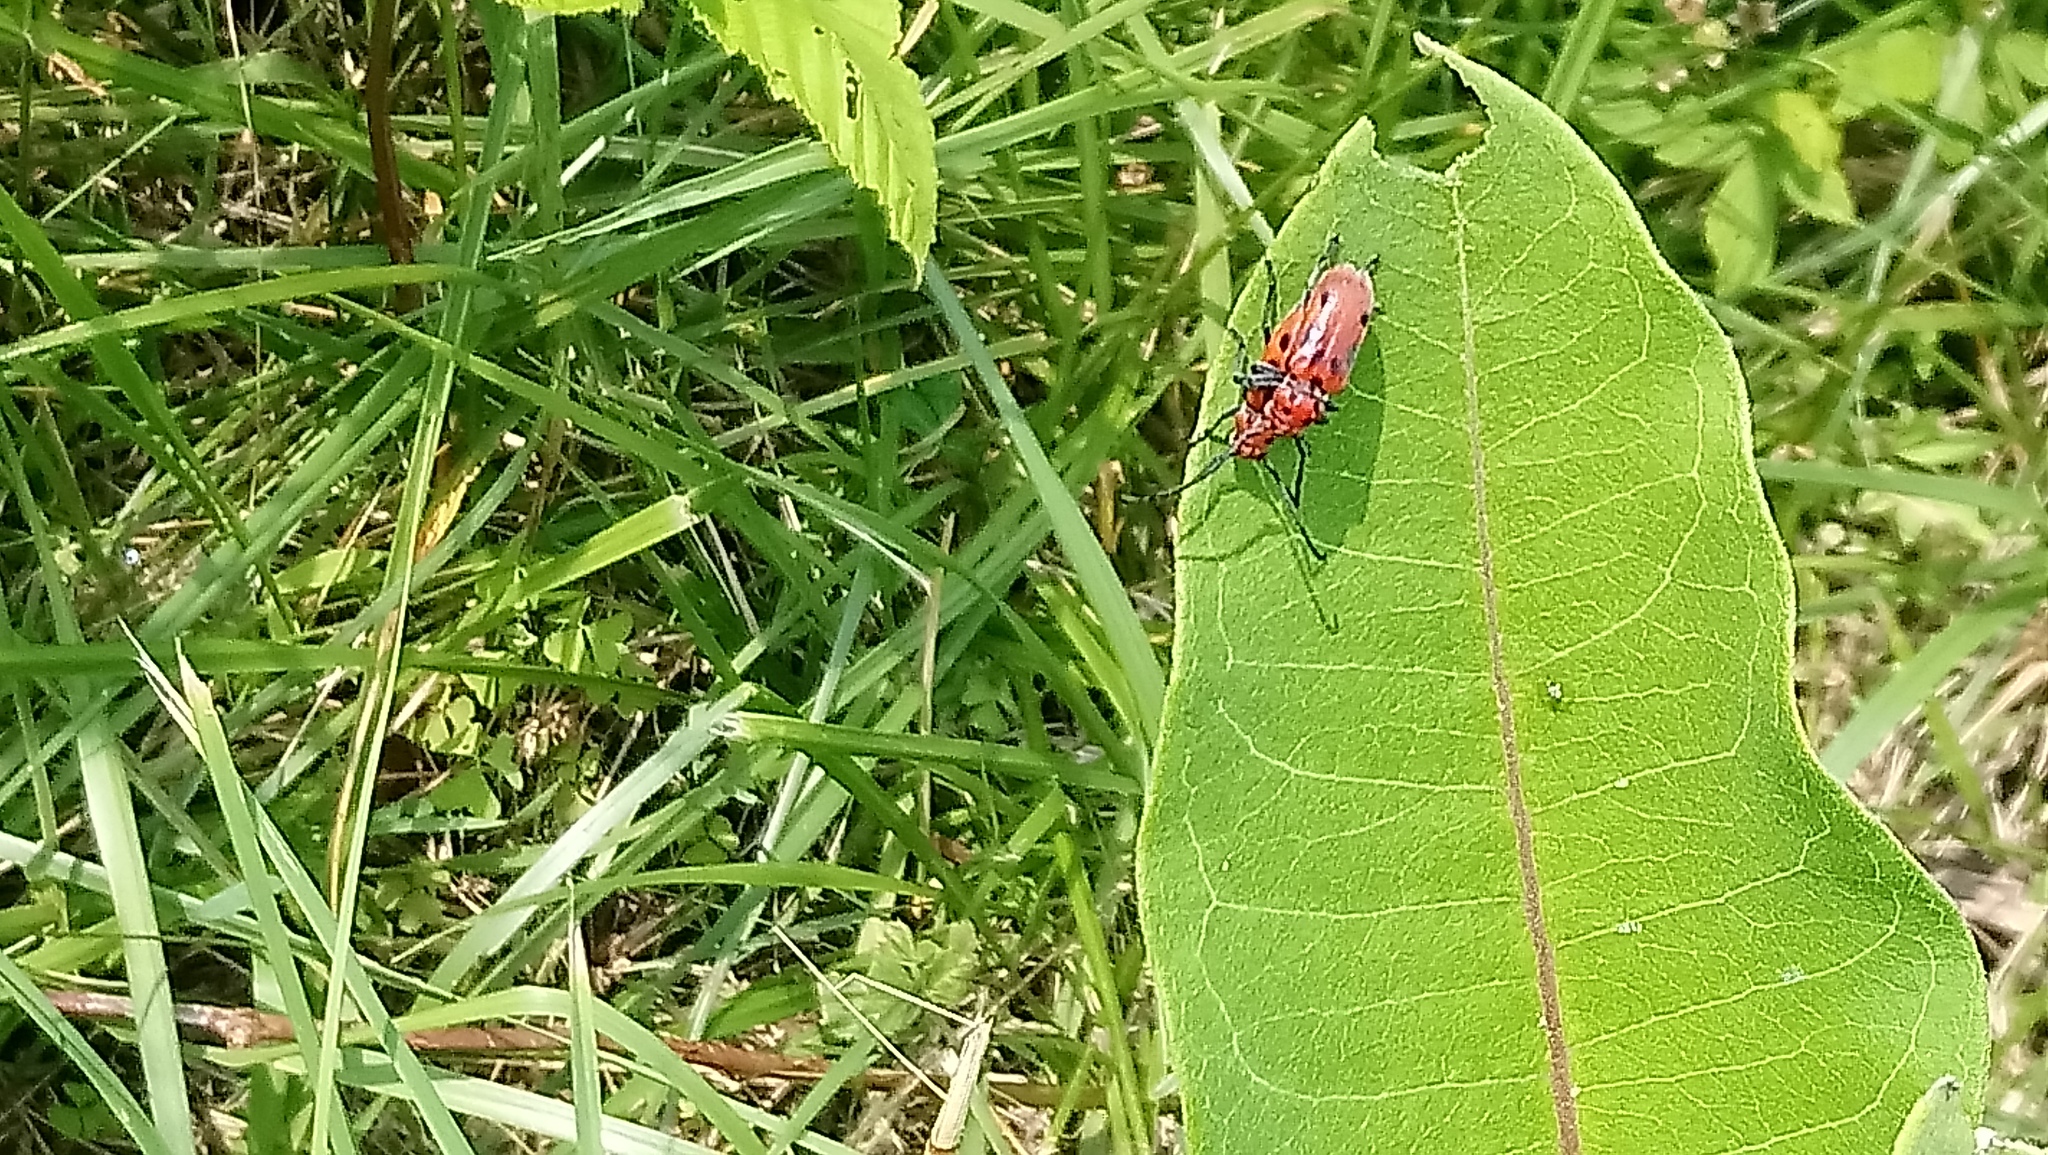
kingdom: Animalia
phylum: Arthropoda
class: Insecta
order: Coleoptera
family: Cerambycidae
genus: Tetraopes
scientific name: Tetraopes tetrophthalmus
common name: Red milkweed beetle
